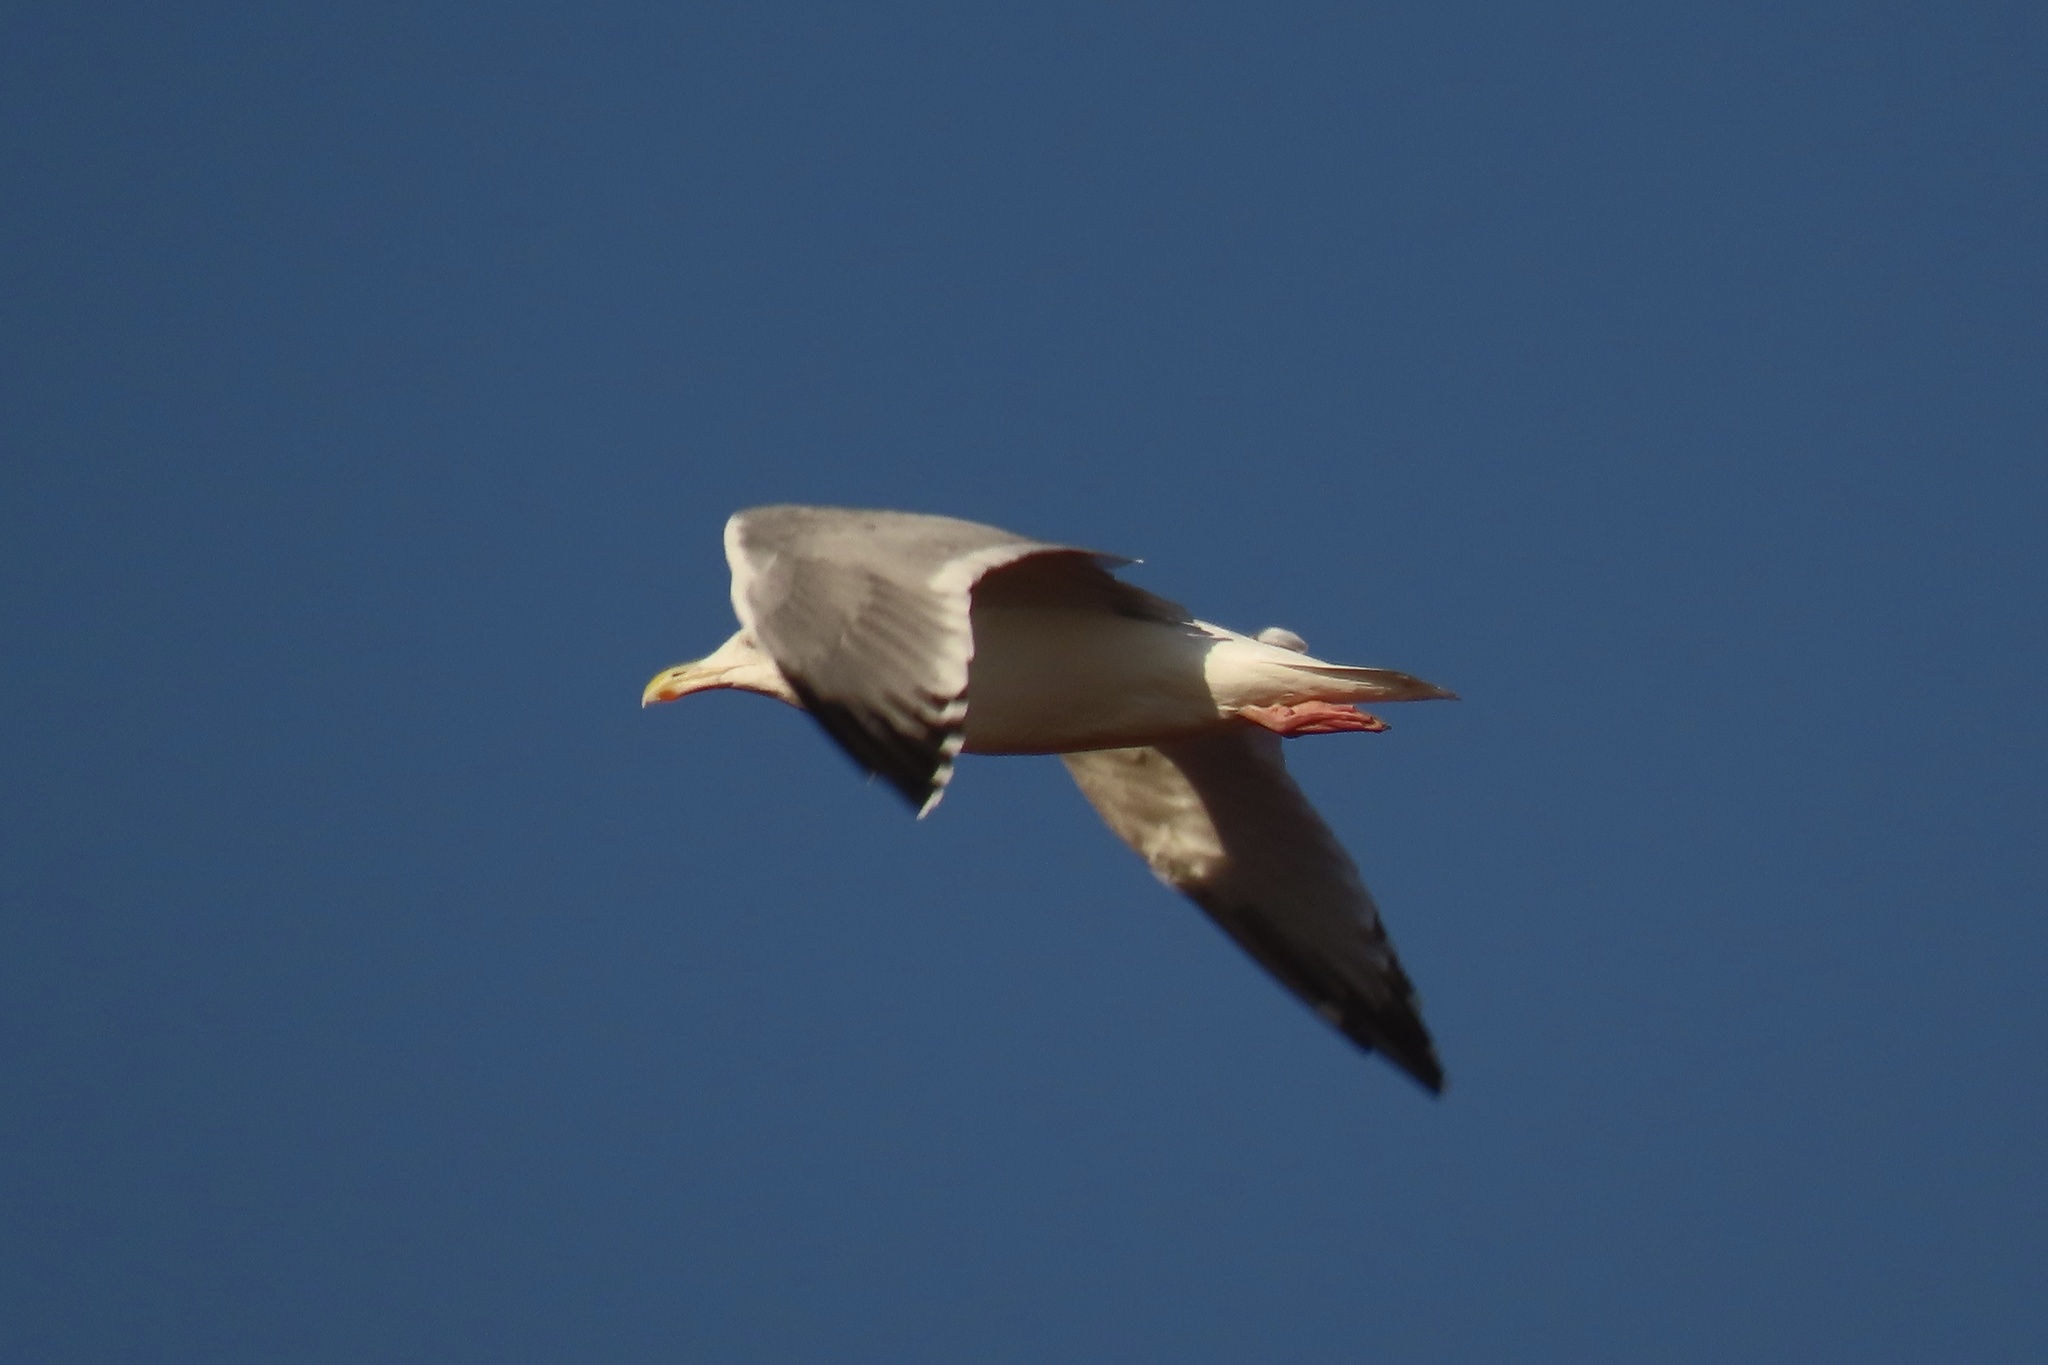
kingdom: Animalia
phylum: Chordata
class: Aves
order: Charadriiformes
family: Laridae
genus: Larus
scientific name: Larus argentatus
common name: Herring gull
